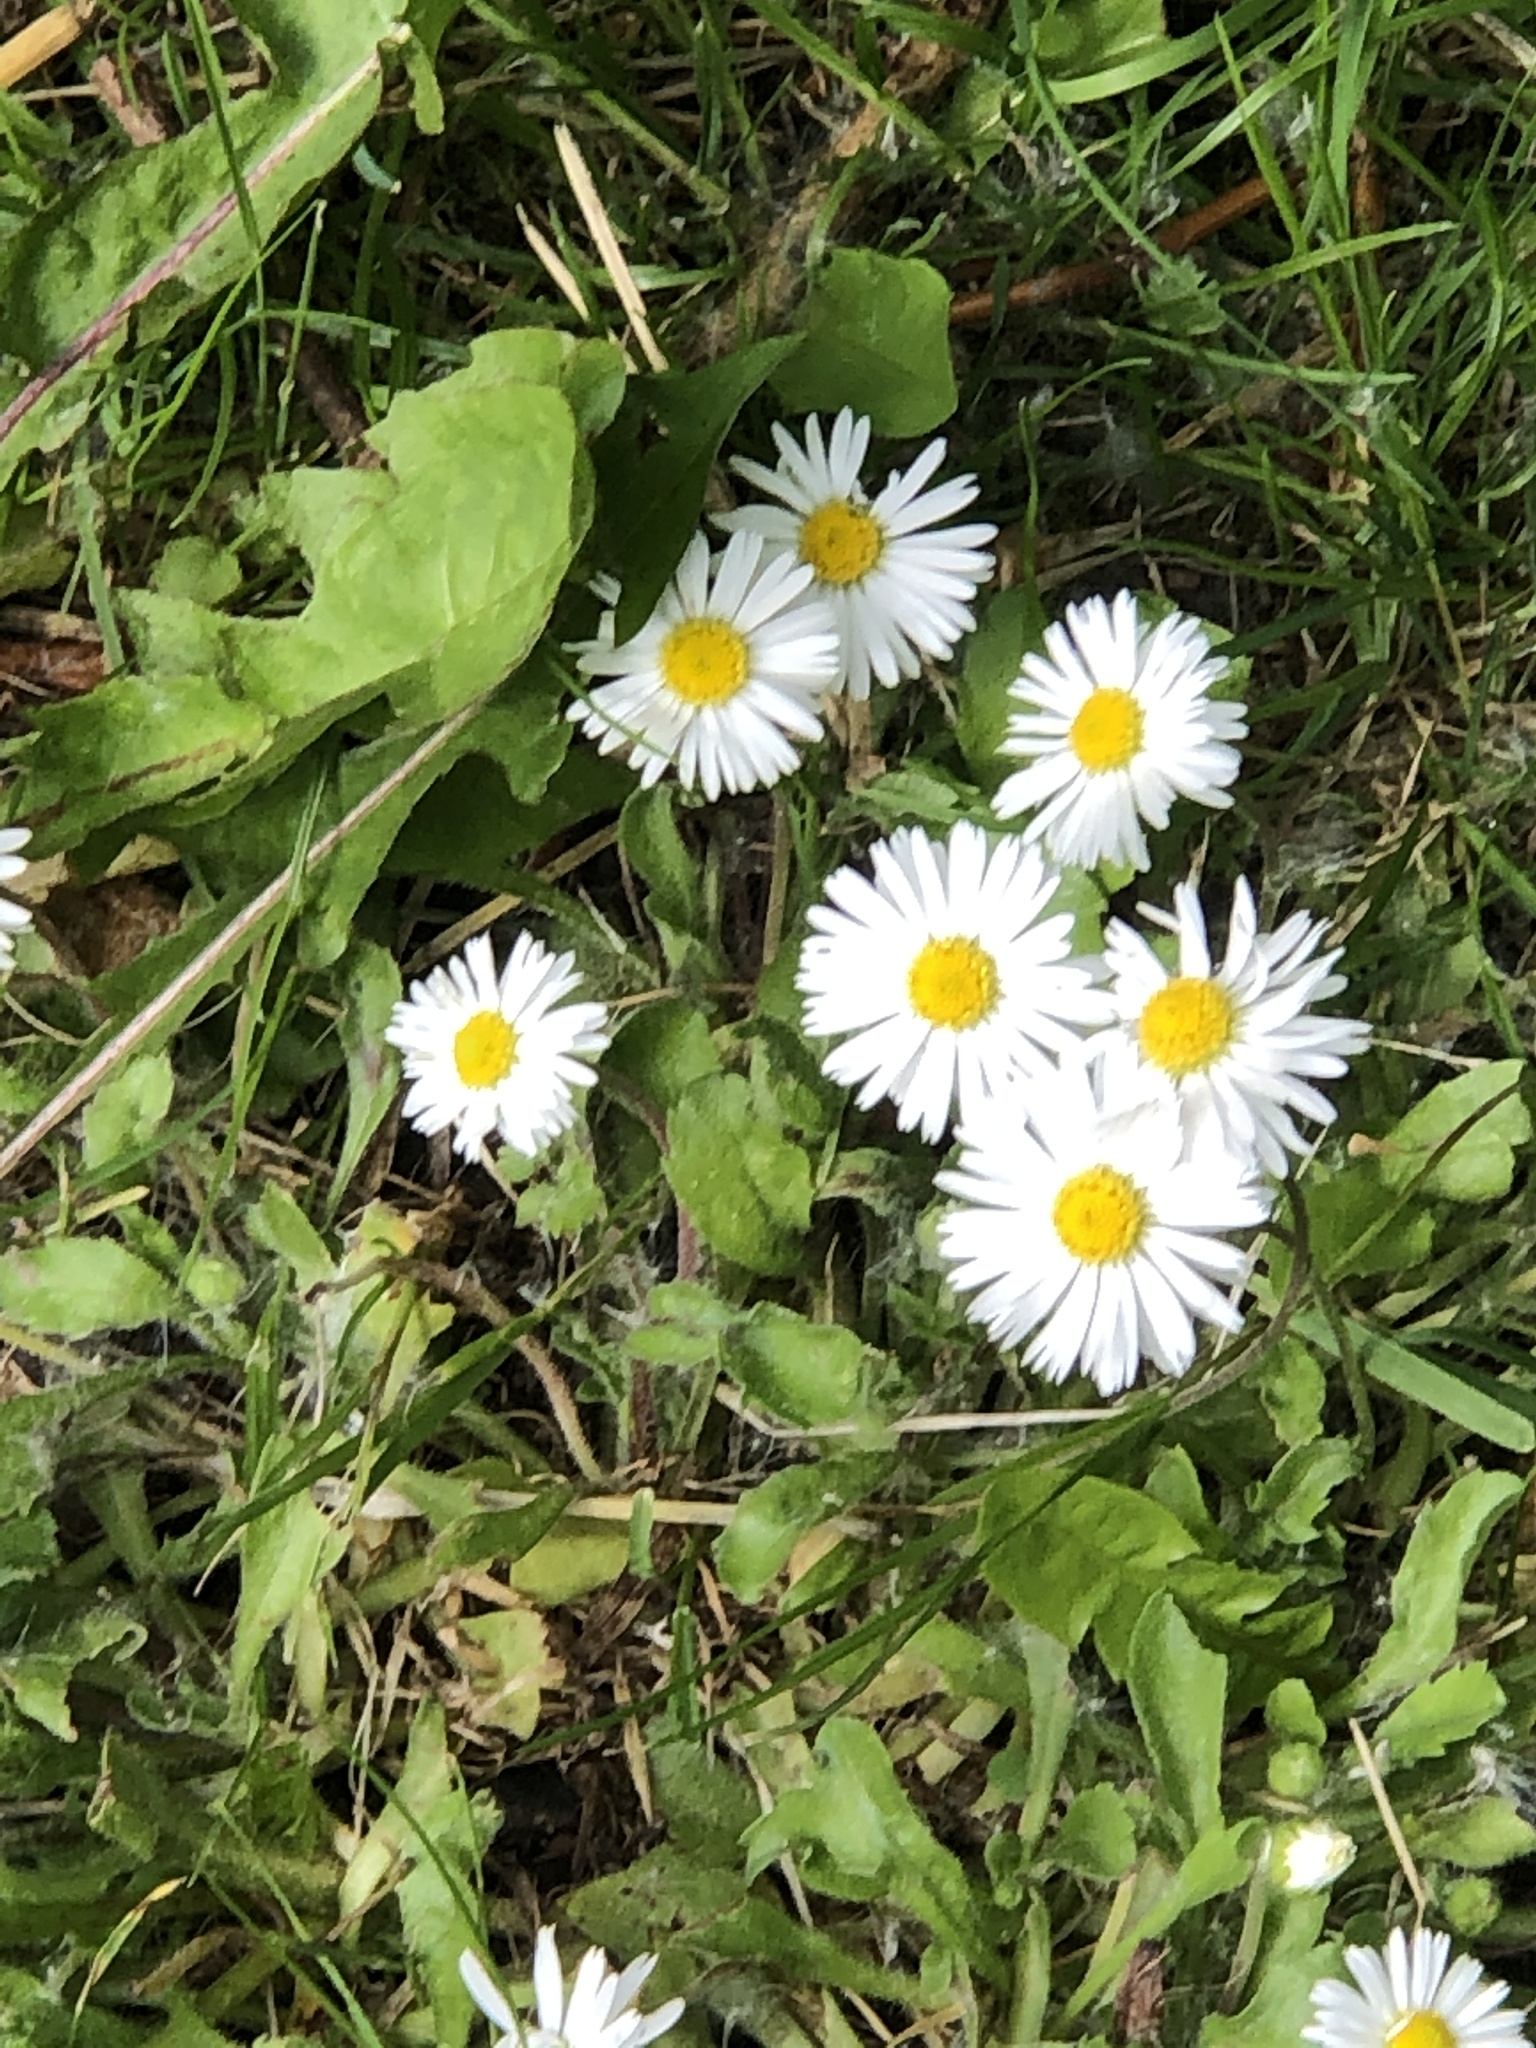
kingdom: Plantae
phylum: Tracheophyta
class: Magnoliopsida
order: Asterales
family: Asteraceae
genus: Bellis
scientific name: Bellis perennis
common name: Lawndaisy
